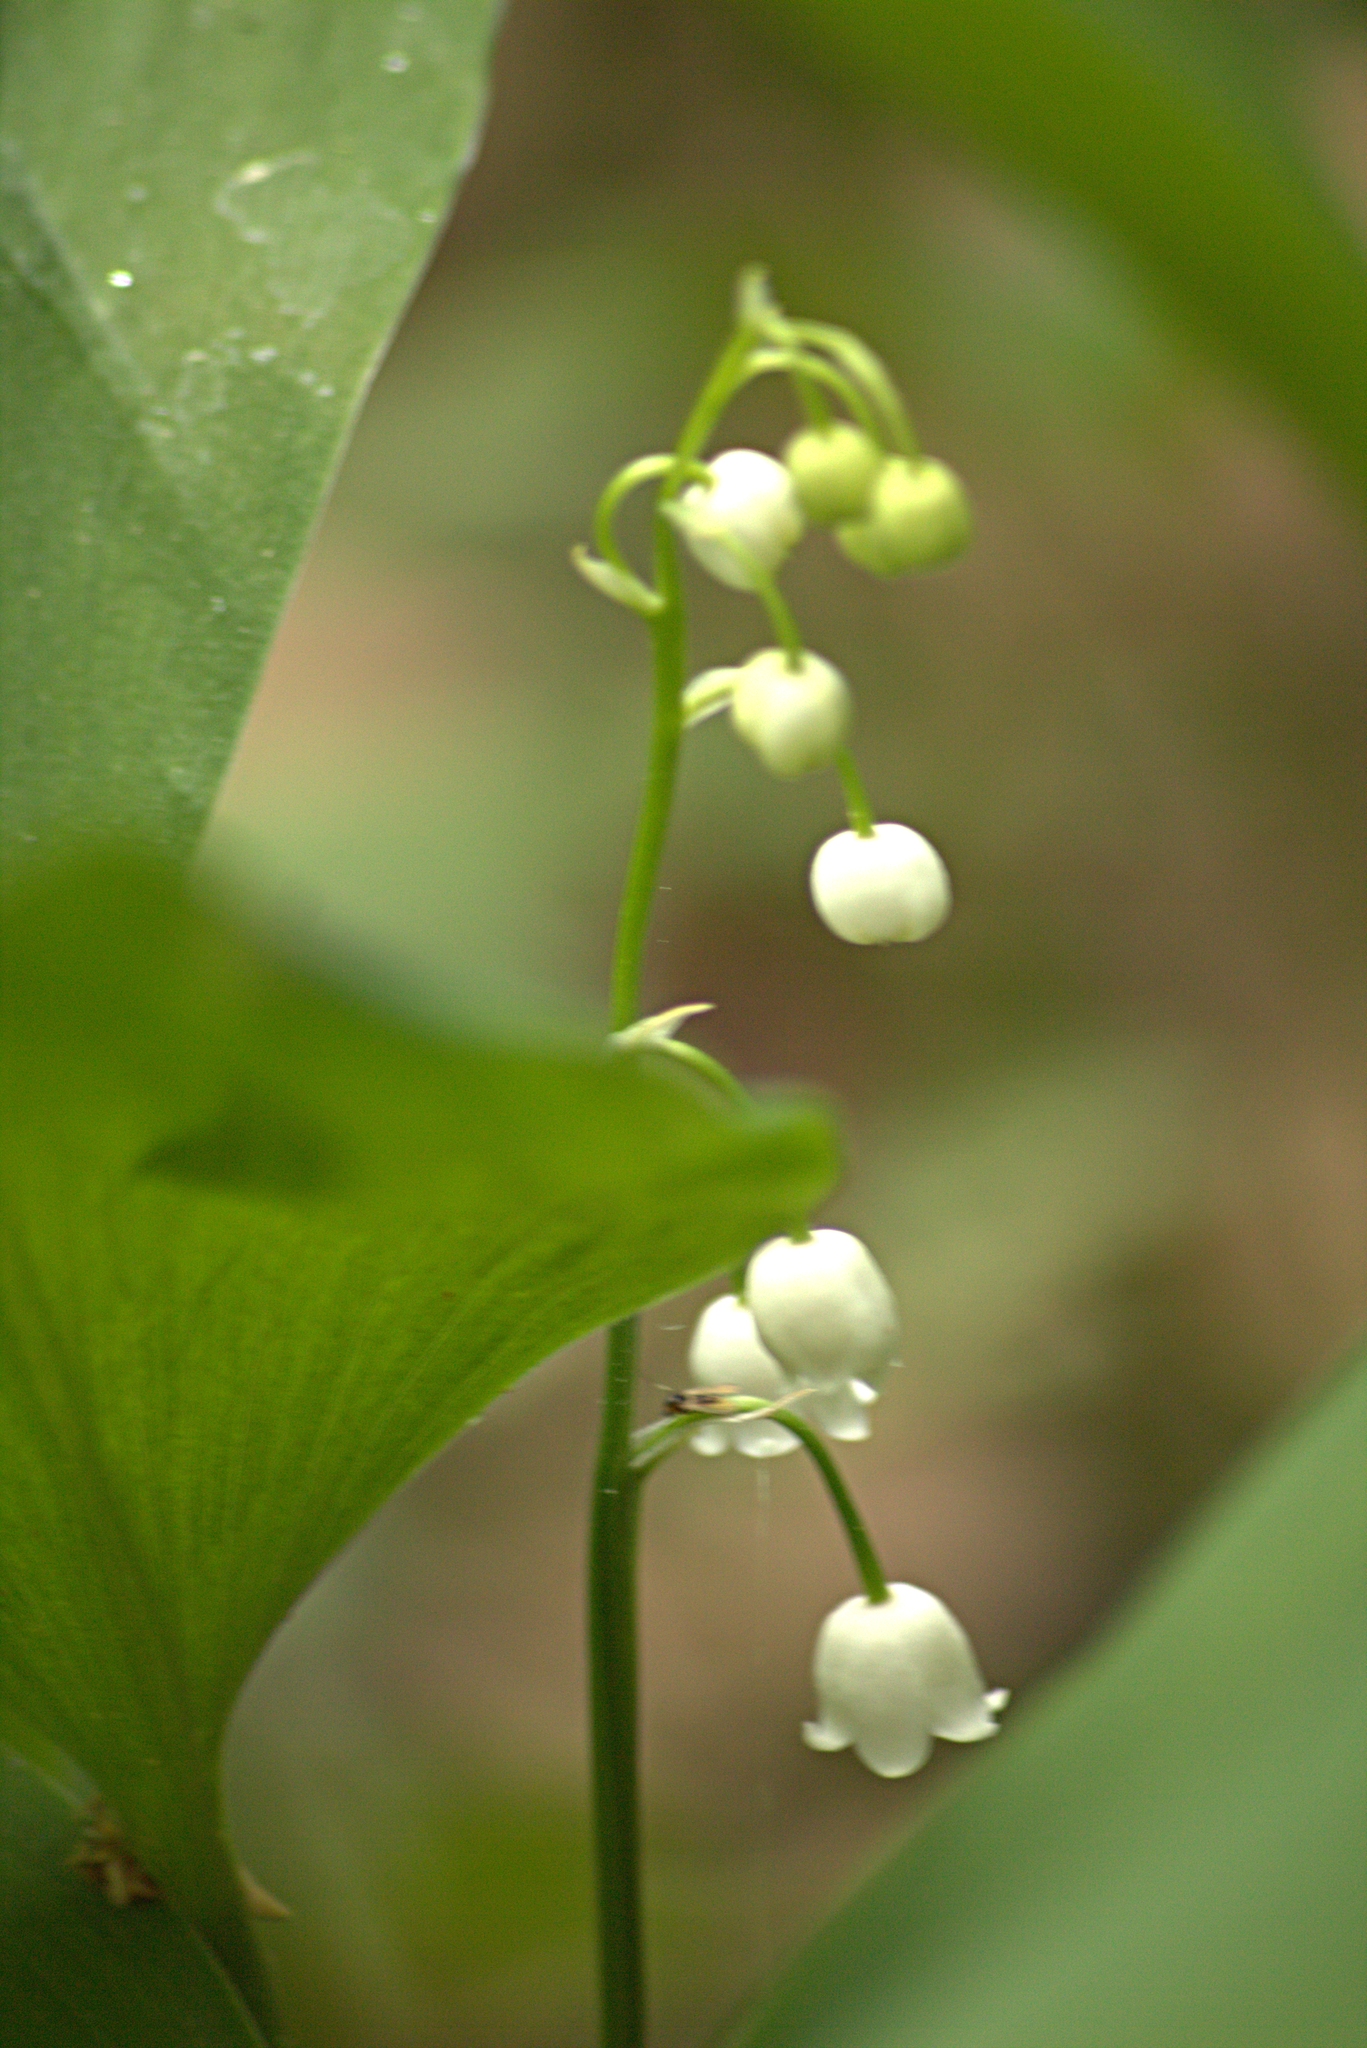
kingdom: Plantae
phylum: Tracheophyta
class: Liliopsida
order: Asparagales
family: Asparagaceae
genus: Convallaria
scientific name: Convallaria majalis
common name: Lily-of-the-valley
